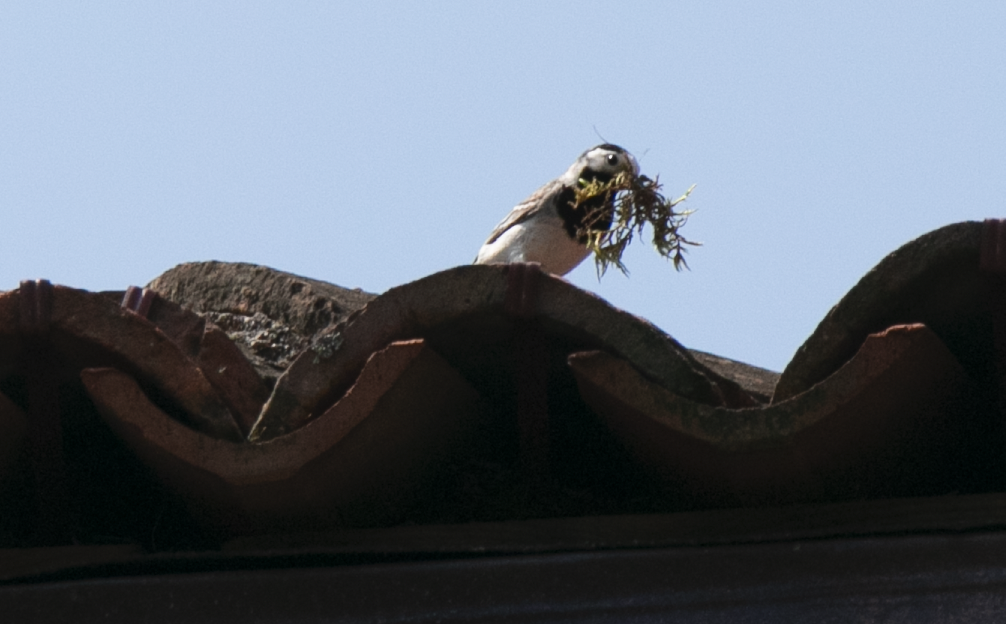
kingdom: Animalia
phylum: Chordata
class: Aves
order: Passeriformes
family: Motacillidae
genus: Motacilla
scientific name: Motacilla alba
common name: White wagtail
